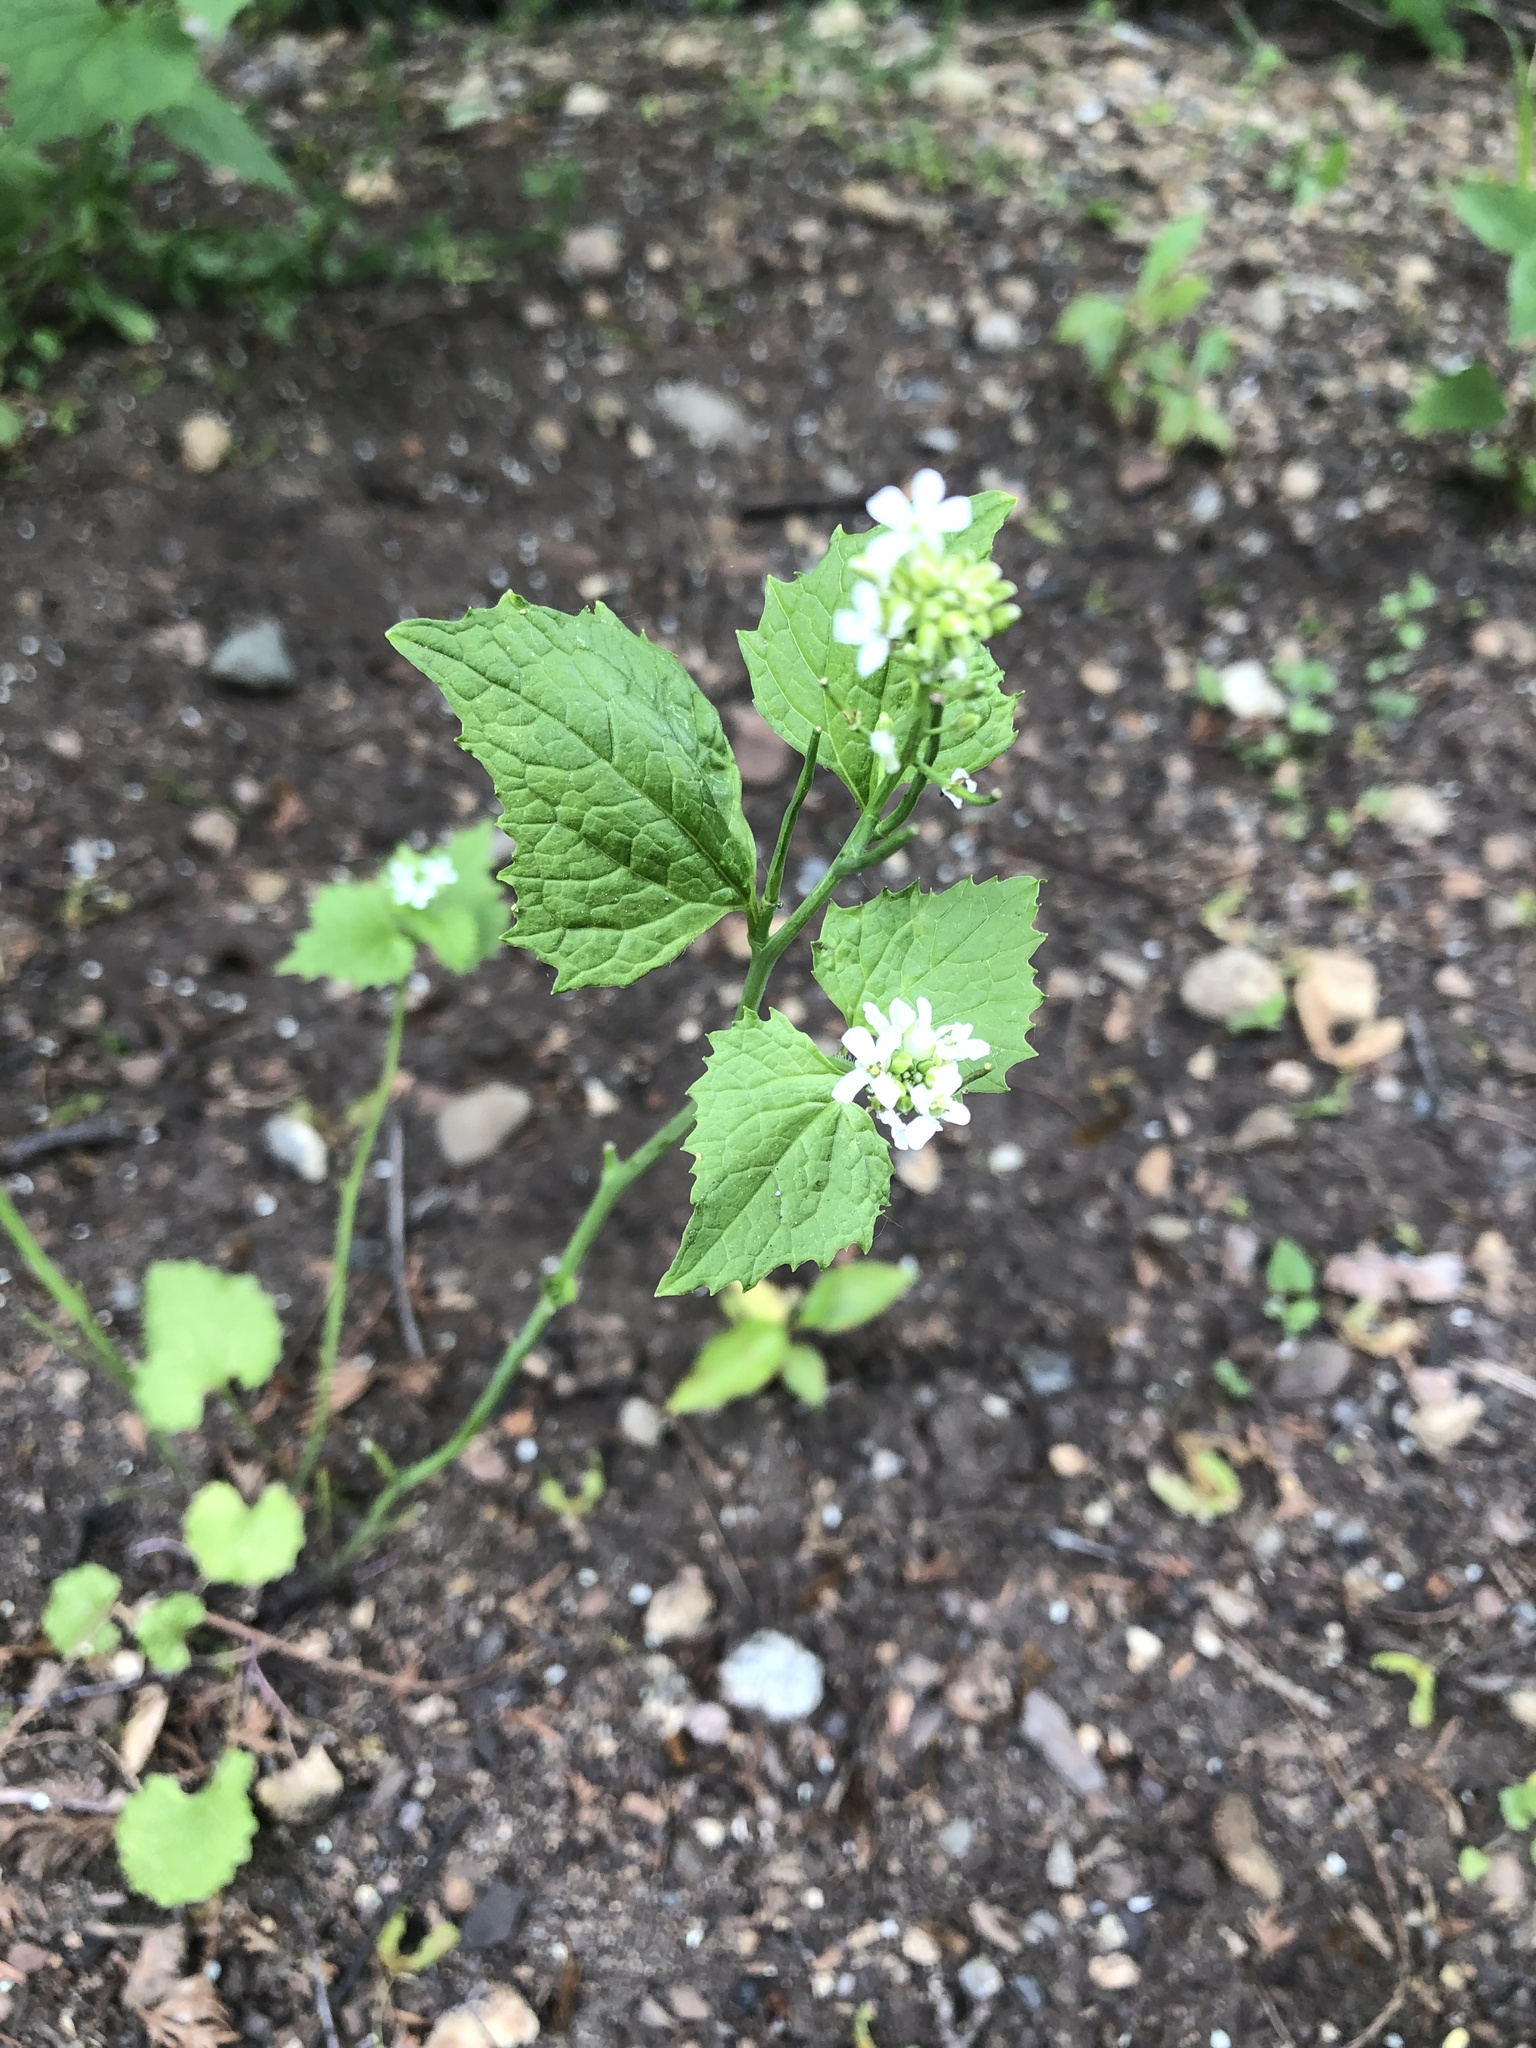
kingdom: Plantae
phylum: Tracheophyta
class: Magnoliopsida
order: Brassicales
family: Brassicaceae
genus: Alliaria
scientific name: Alliaria petiolata
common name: Garlic mustard
